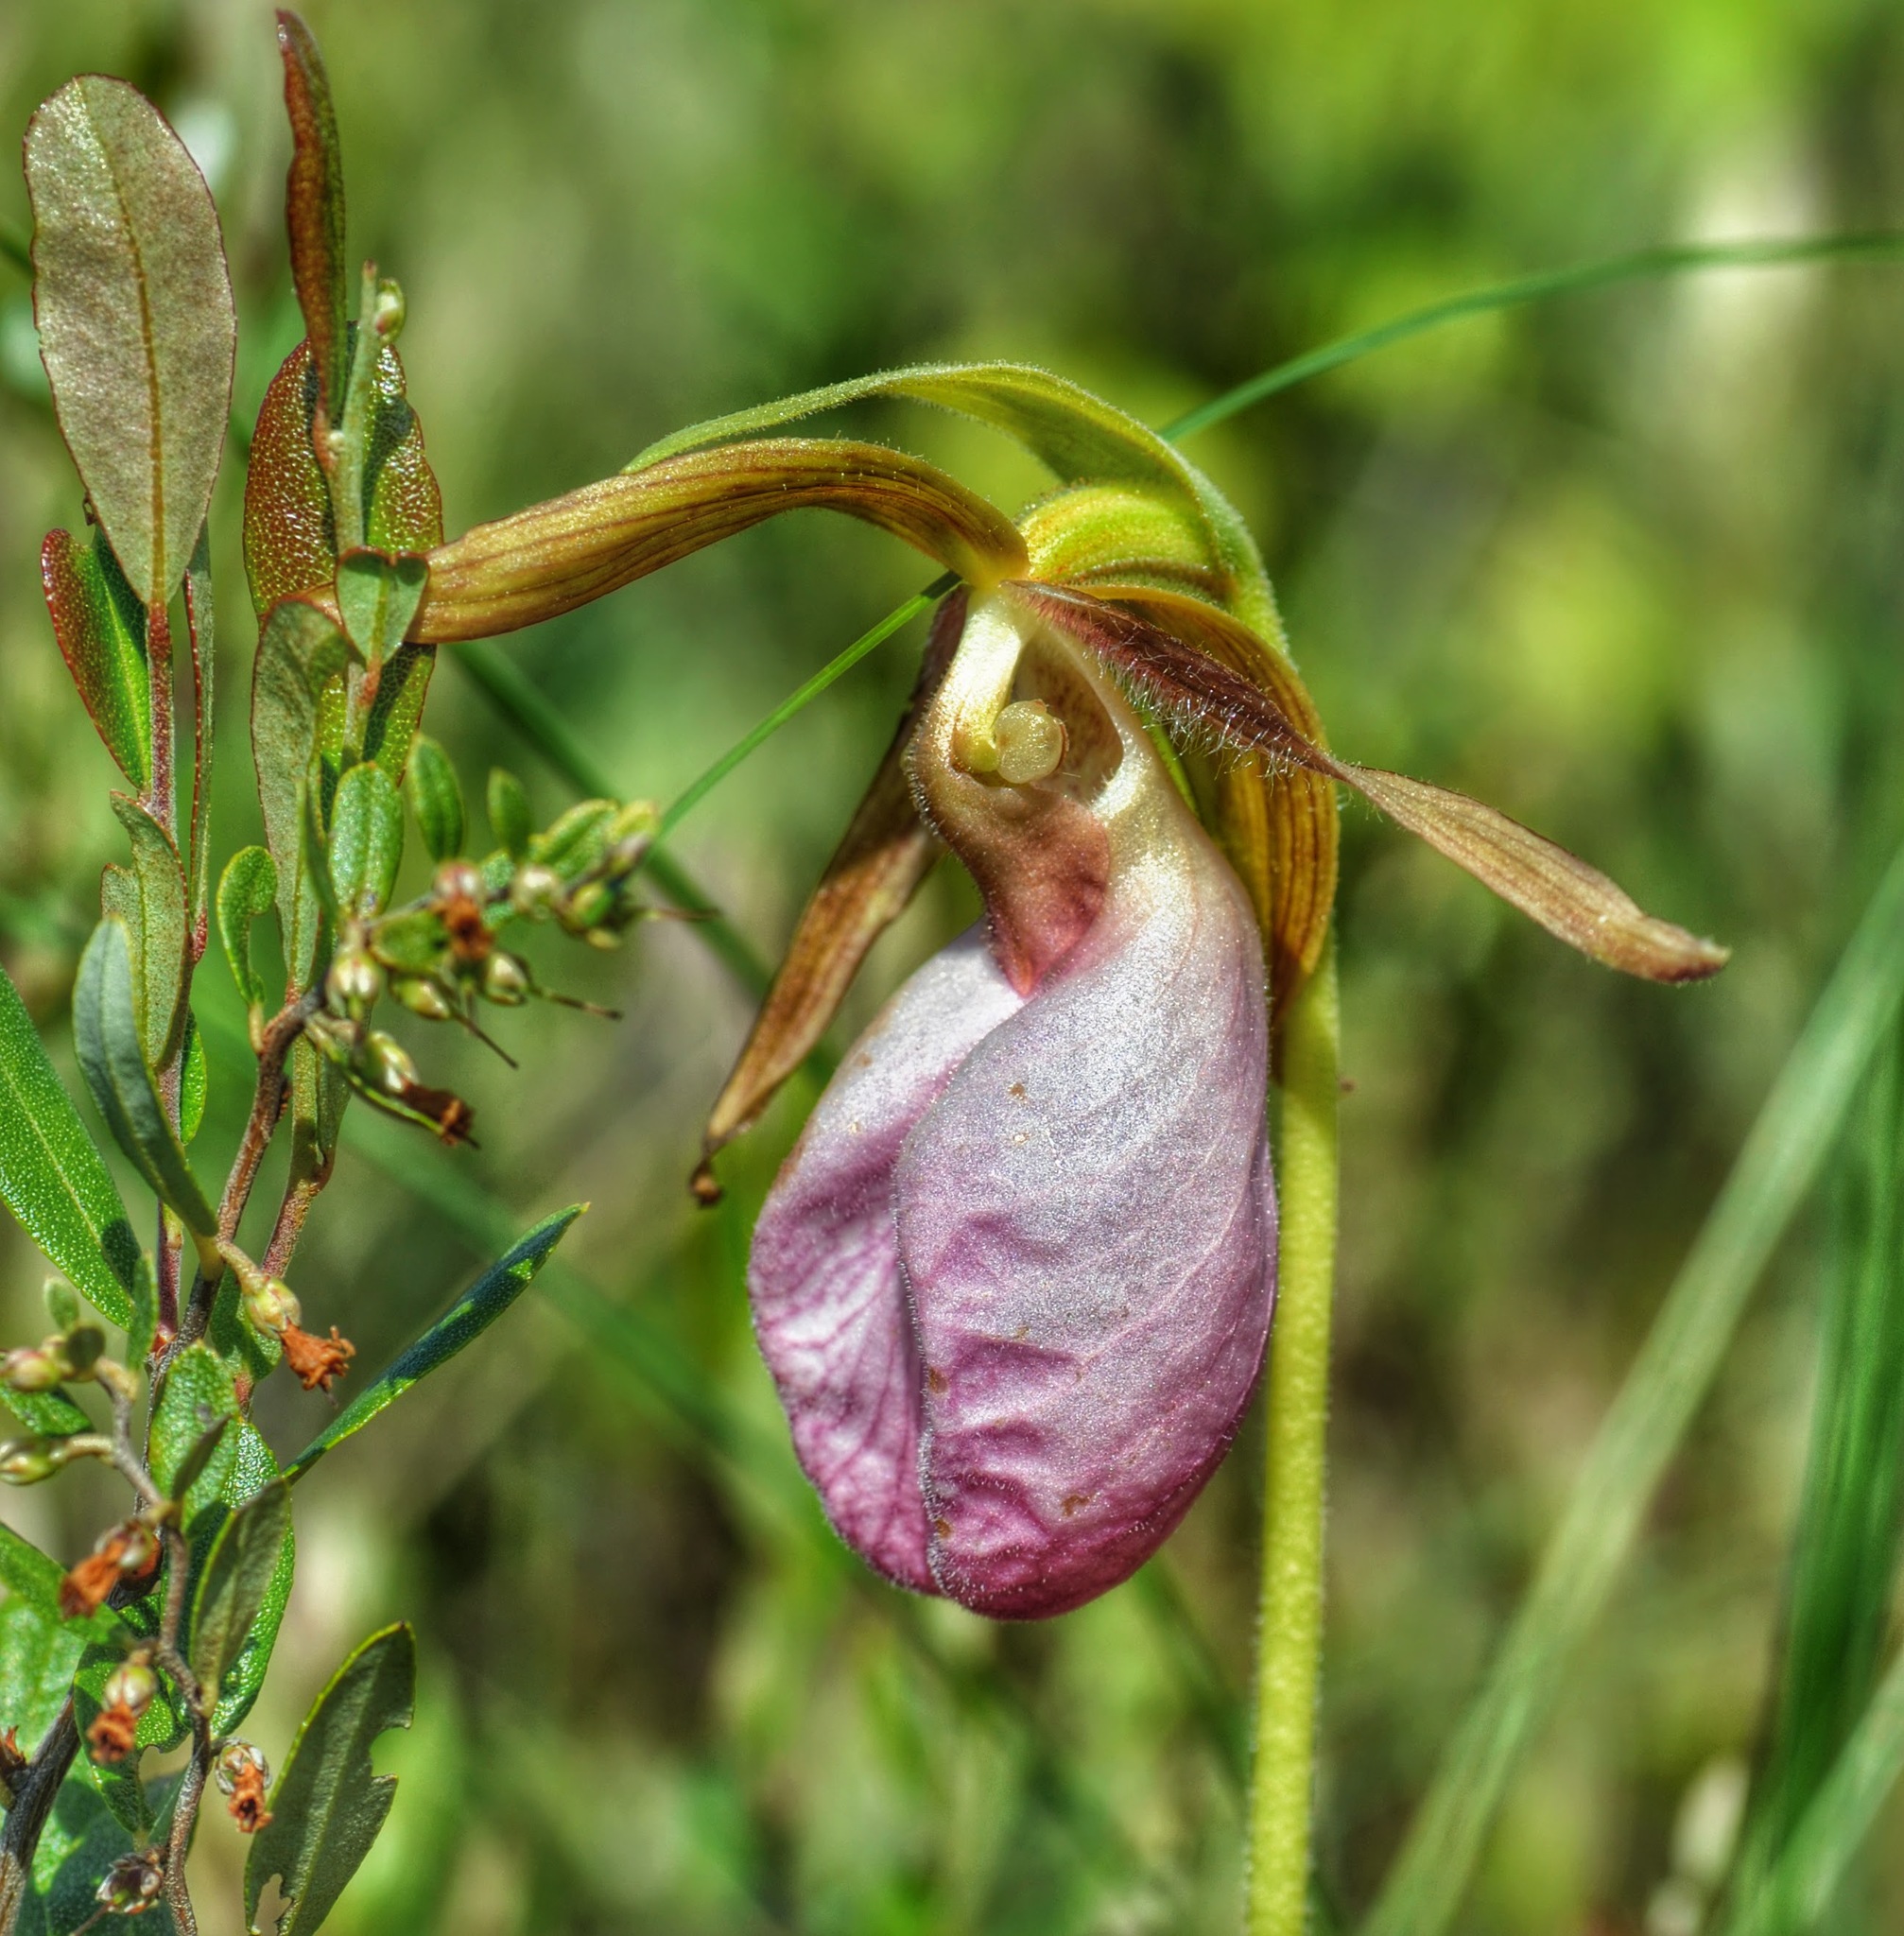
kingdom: Plantae
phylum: Tracheophyta
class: Liliopsida
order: Asparagales
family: Orchidaceae
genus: Cypripedium
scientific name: Cypripedium acaule
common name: Pink lady's-slipper
